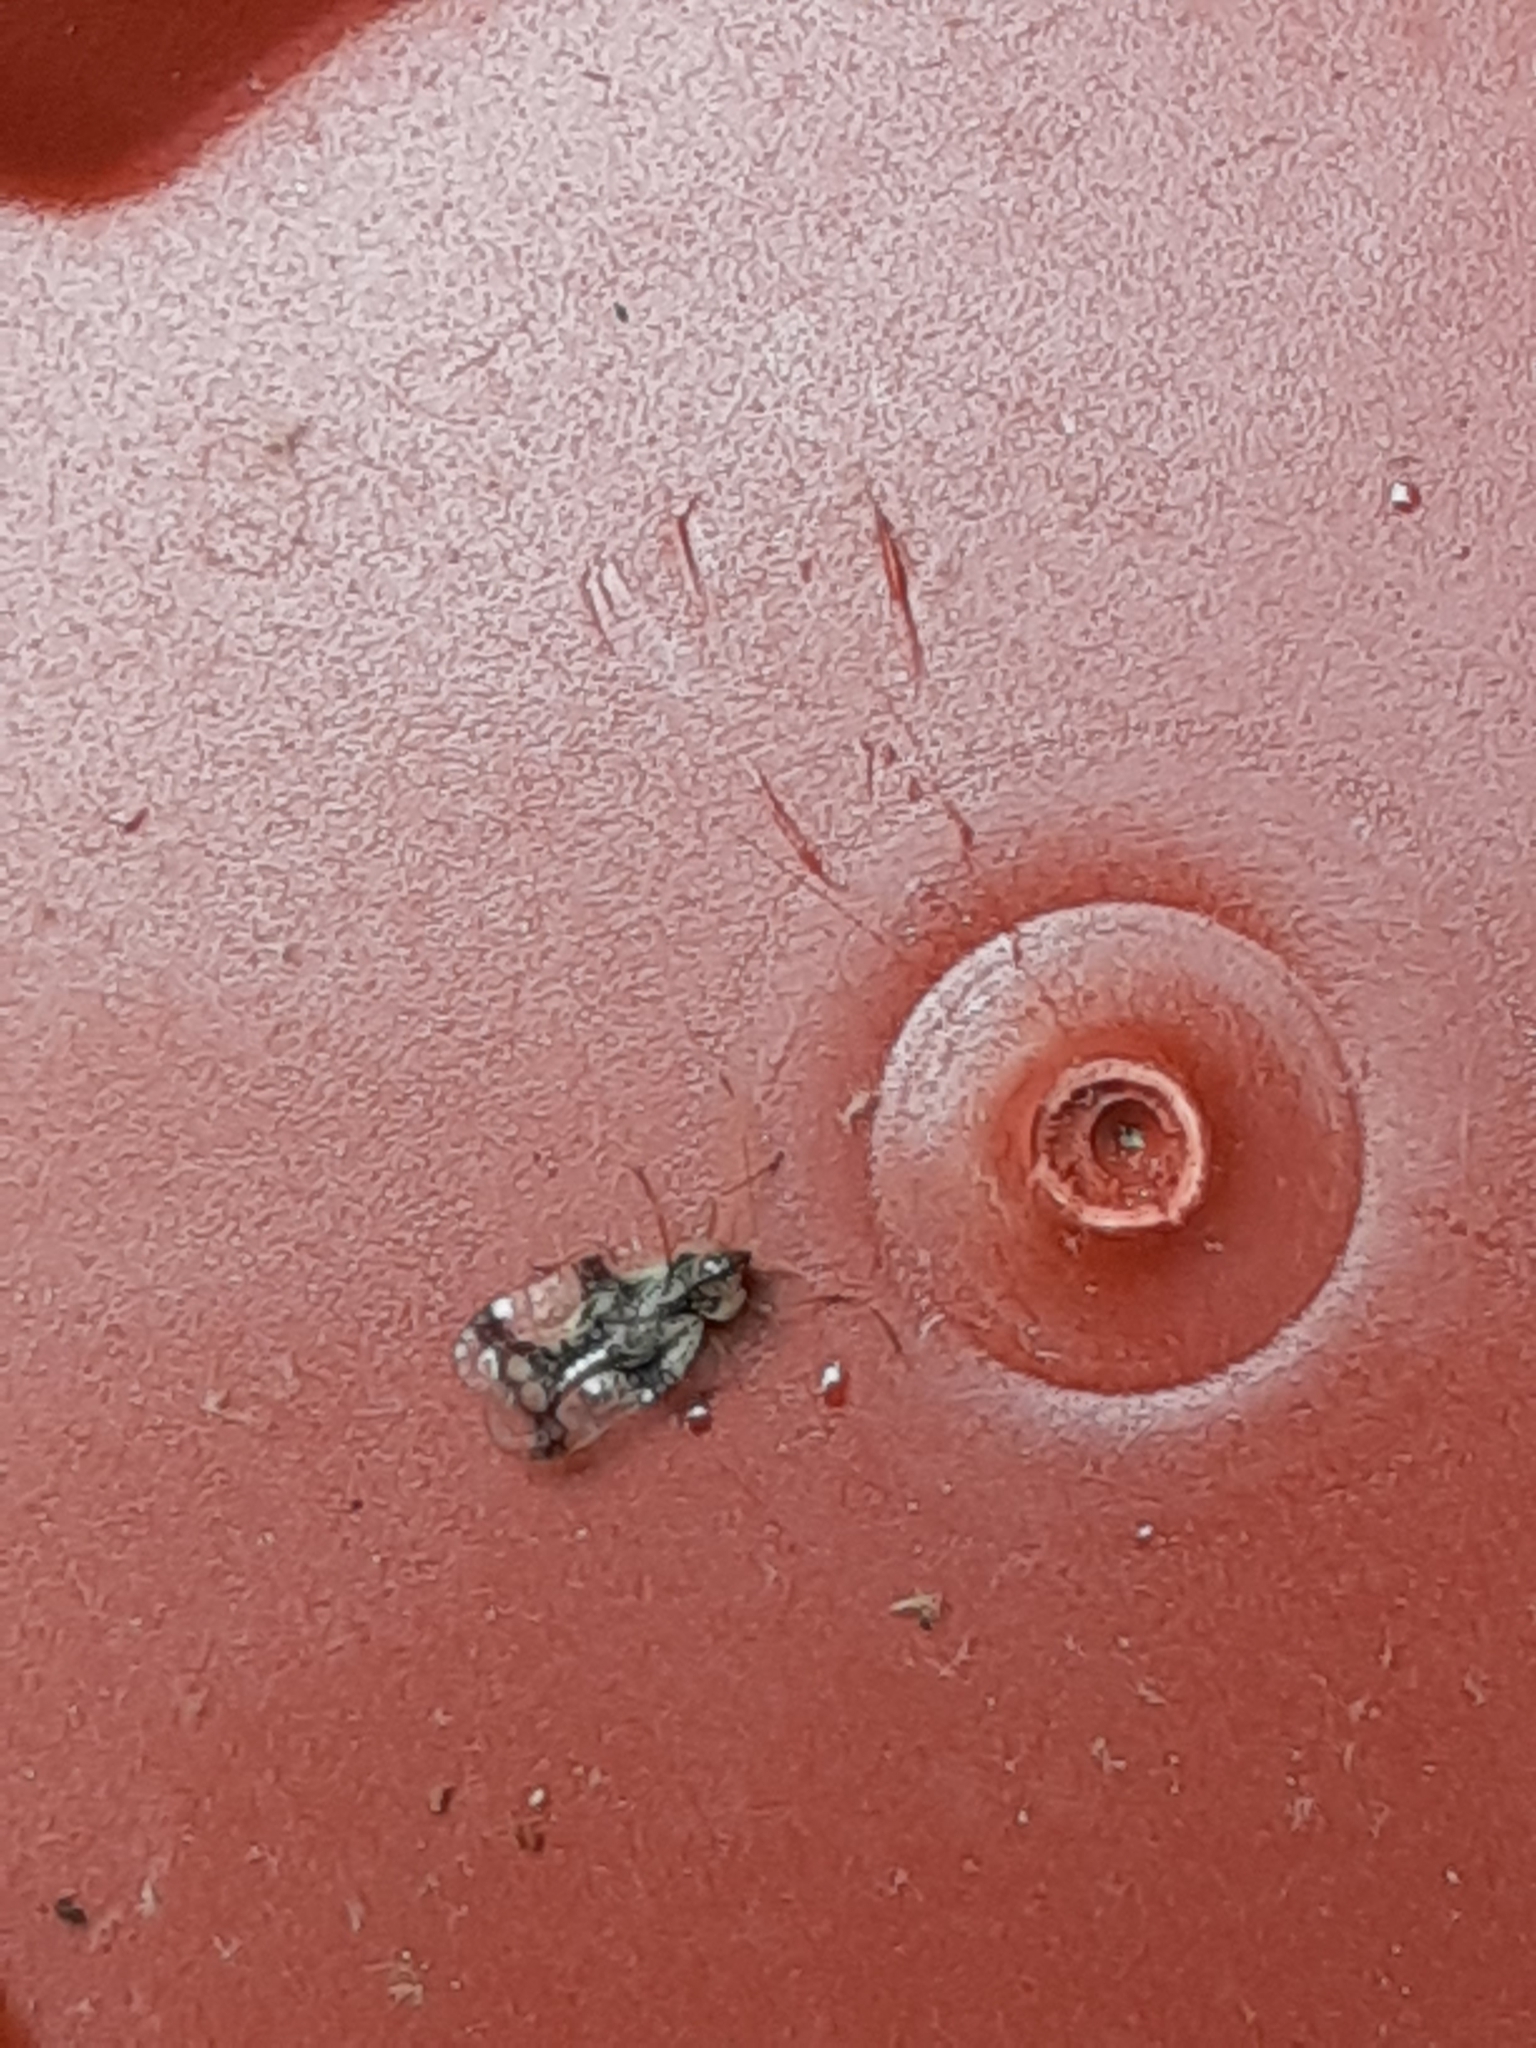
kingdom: Animalia
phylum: Arthropoda
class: Insecta
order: Hemiptera
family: Tingidae
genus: Stephanitis
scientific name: Stephanitis pyrioides
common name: Azalea lace bug
